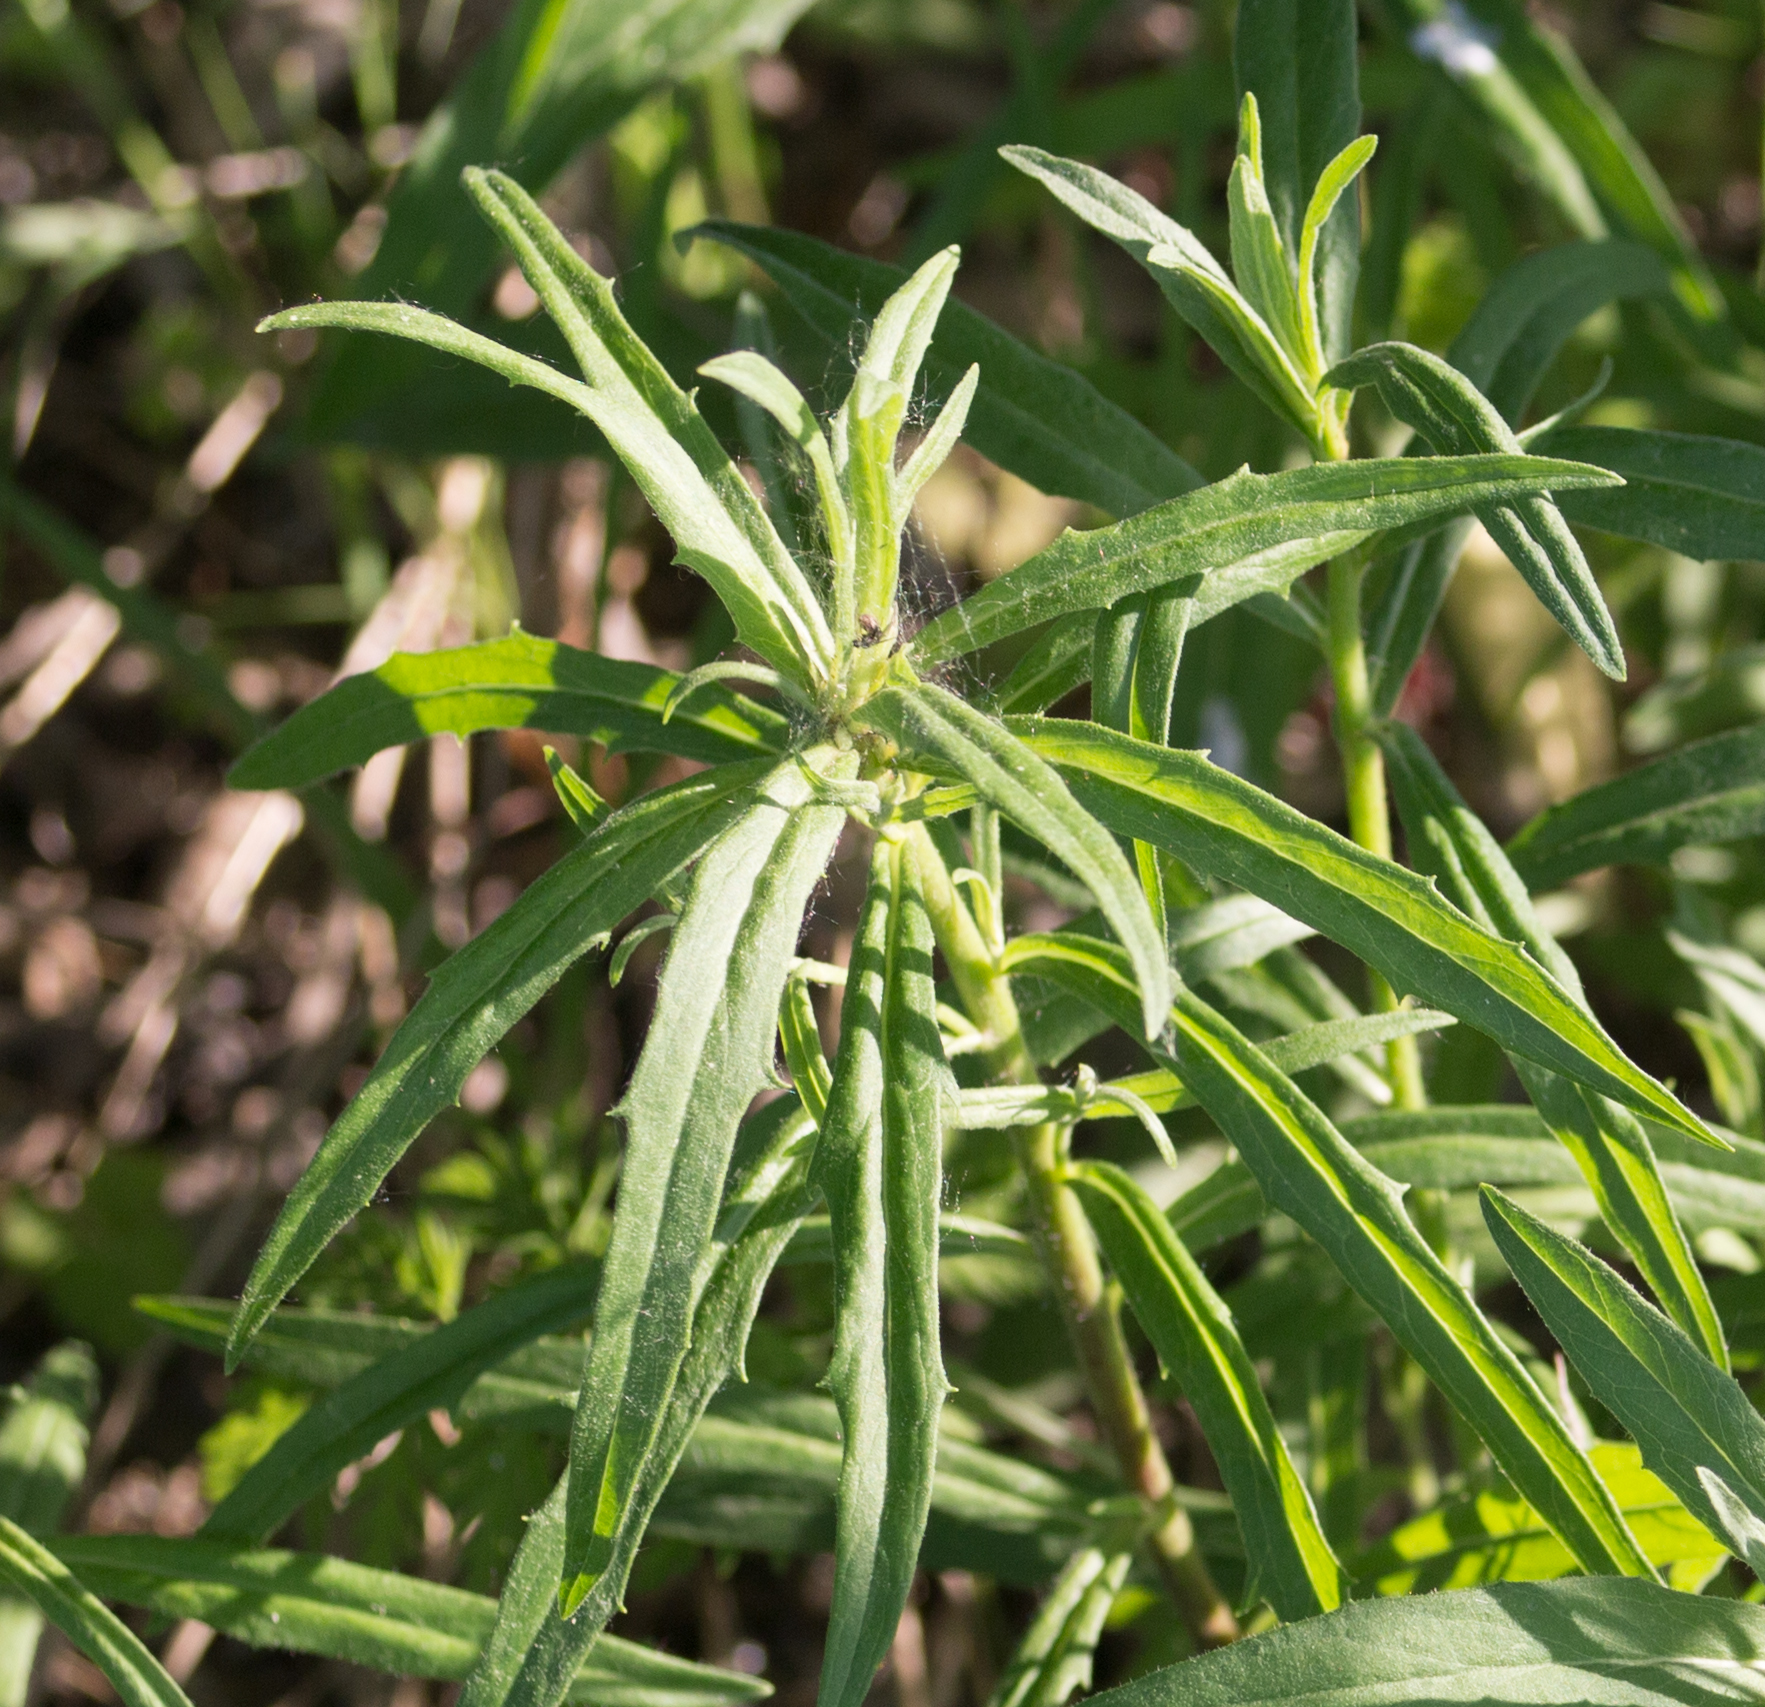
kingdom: Plantae
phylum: Tracheophyta
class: Magnoliopsida
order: Asterales
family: Asteraceae
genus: Hieracium
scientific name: Hieracium umbellatum
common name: Northern hawkweed
